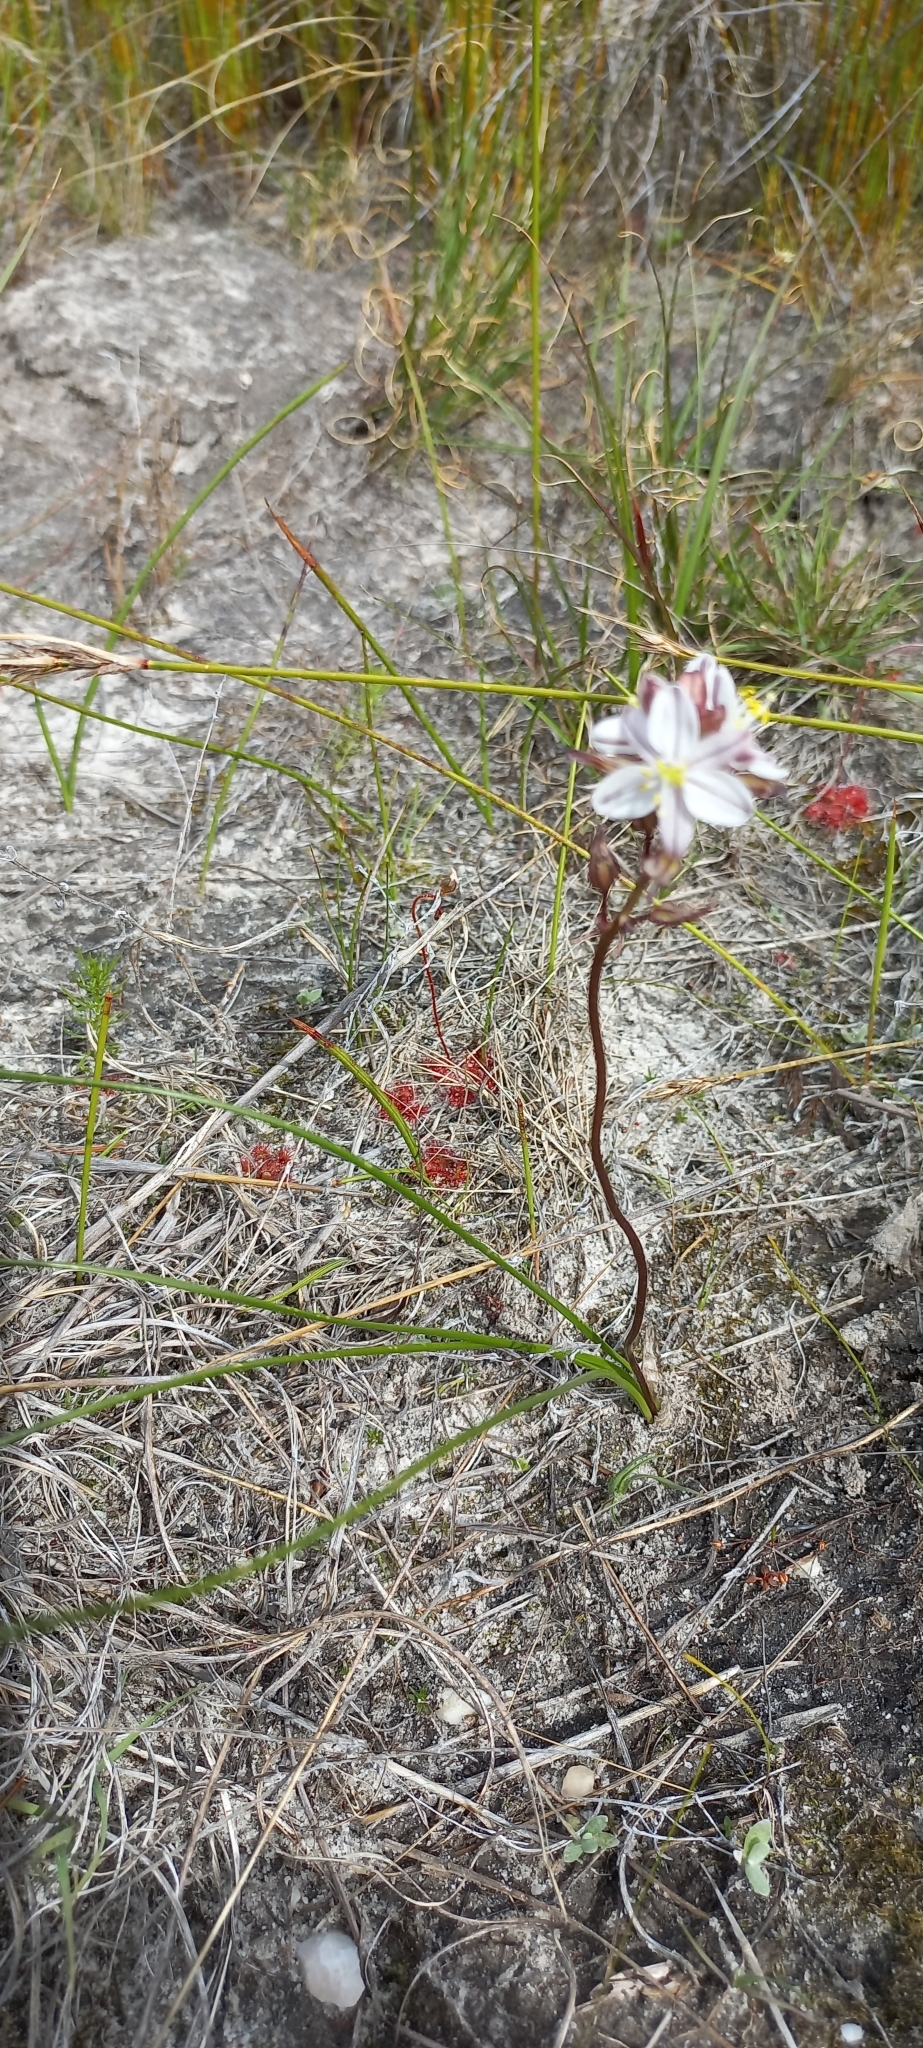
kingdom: Plantae
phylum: Tracheophyta
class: Liliopsida
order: Asparagales
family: Asparagaceae
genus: Drimia
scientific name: Drimia exuviata
